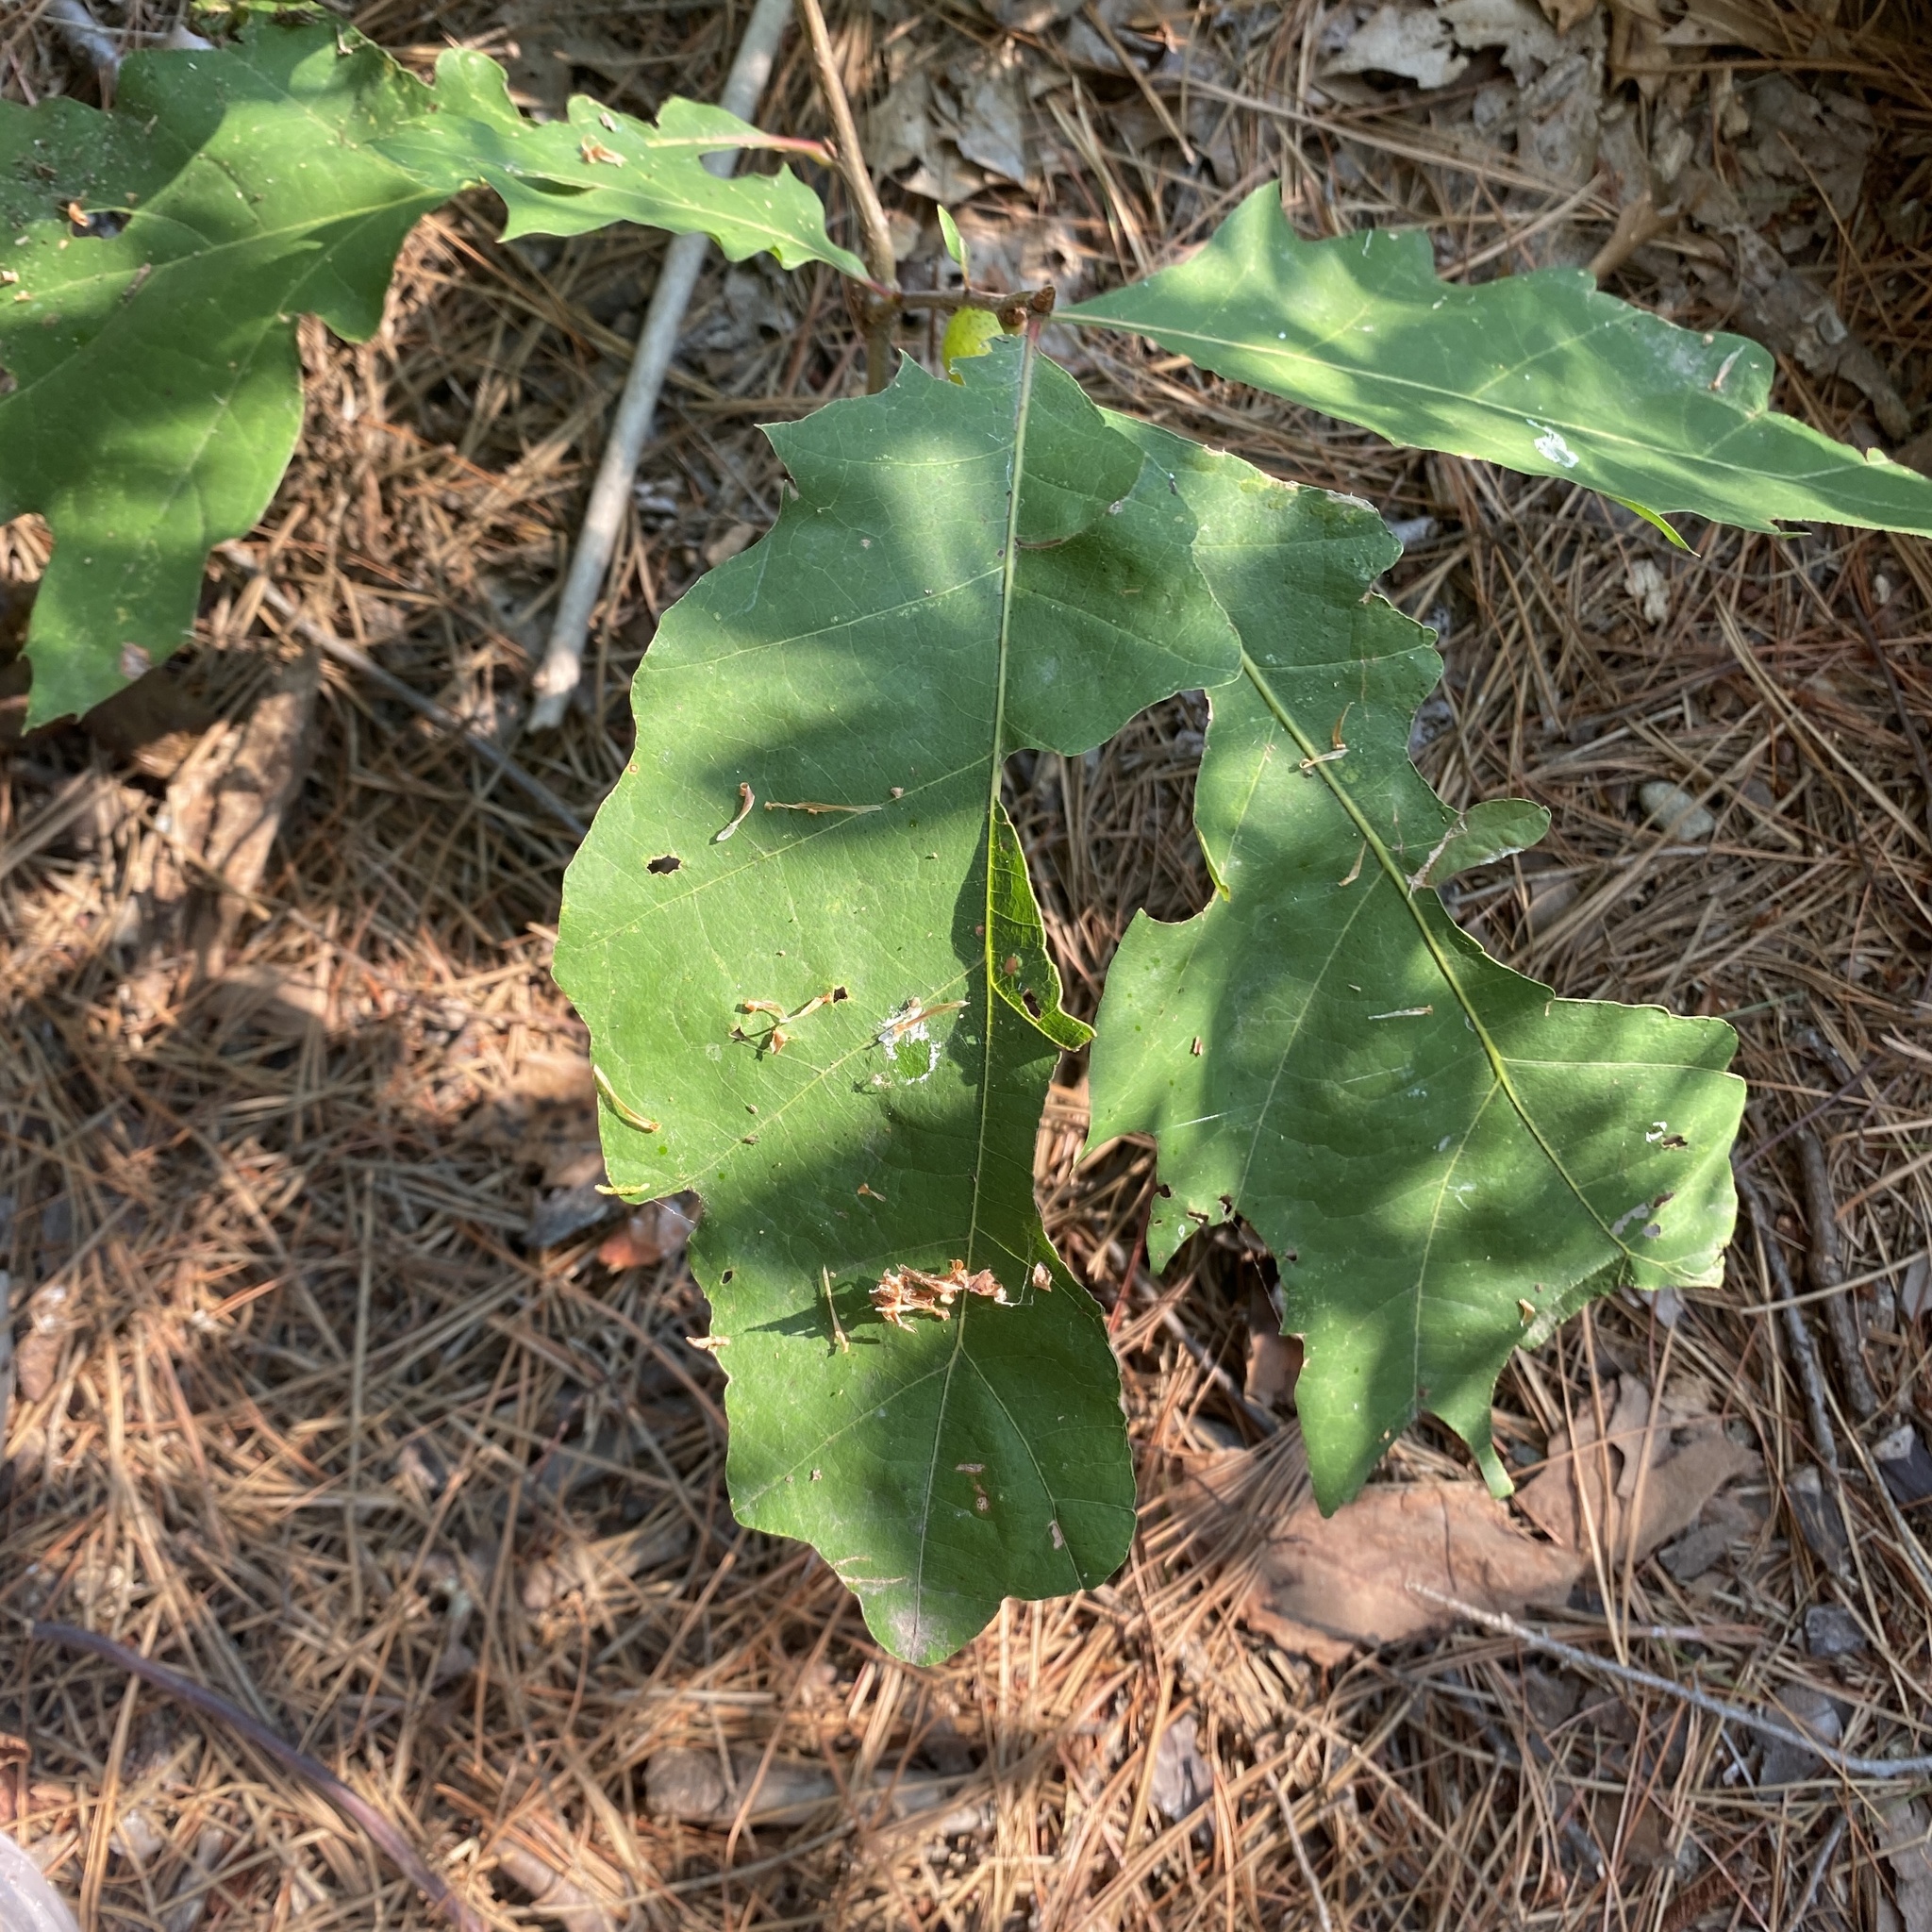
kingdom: Animalia
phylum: Arthropoda
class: Insecta
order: Hymenoptera
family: Cynipidae
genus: Amphibolips
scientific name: Amphibolips
